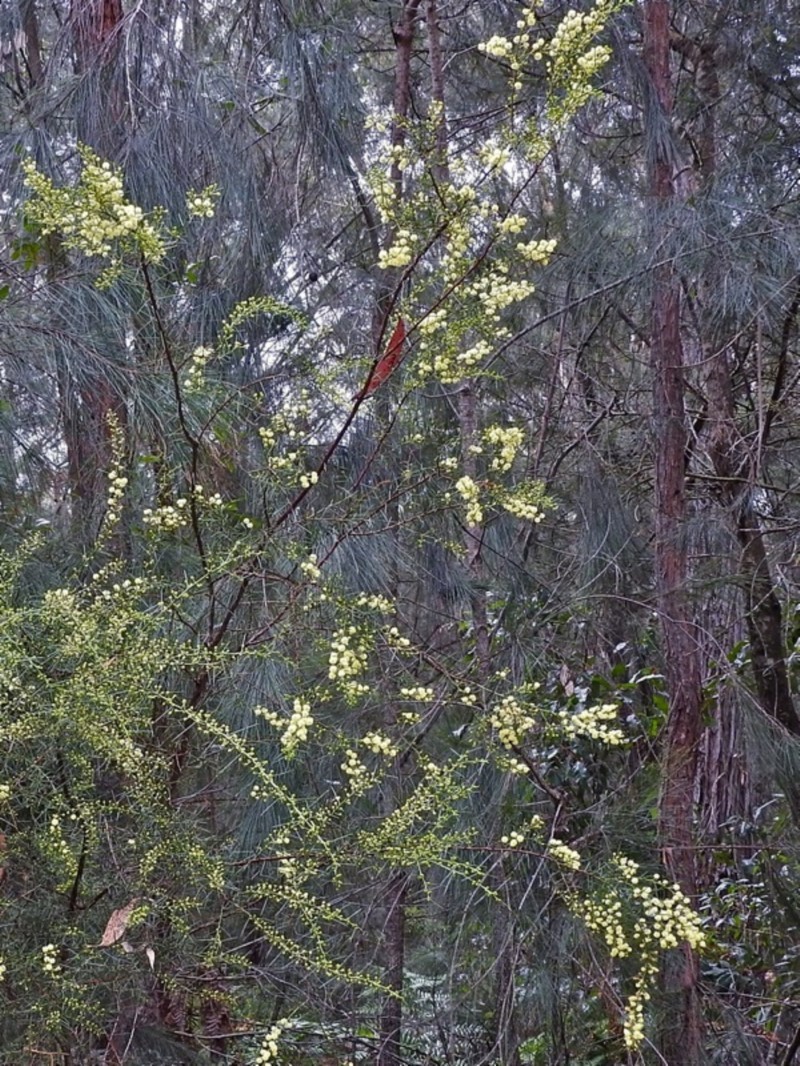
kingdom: Plantae
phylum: Tracheophyta
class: Magnoliopsida
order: Fabales
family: Fabaceae
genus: Acacia
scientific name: Acacia genistifolia
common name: Early wattle
